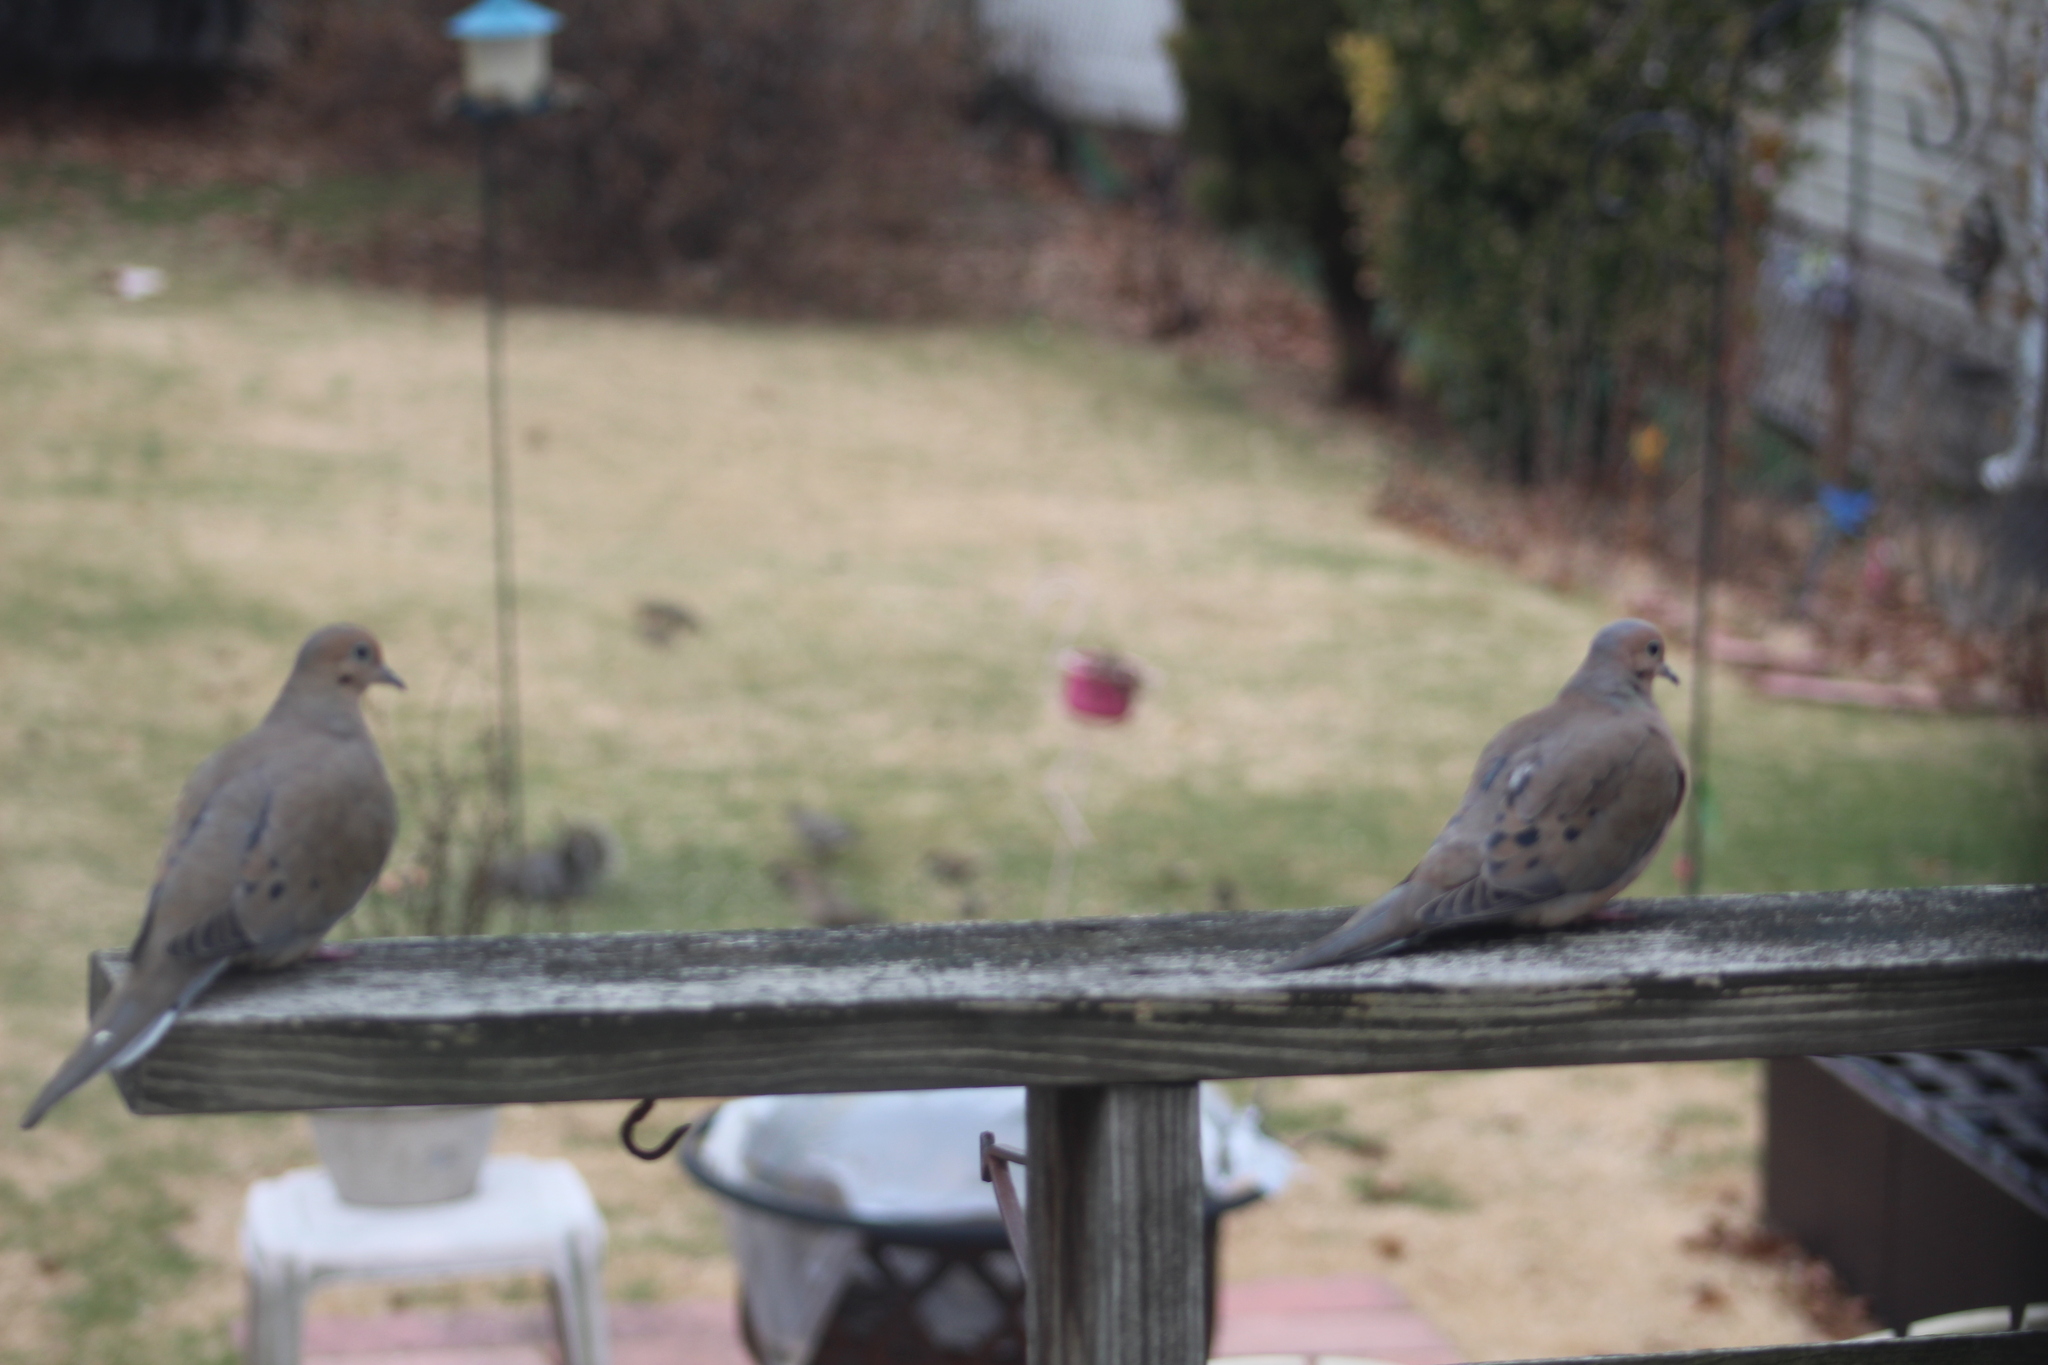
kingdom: Animalia
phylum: Chordata
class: Aves
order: Columbiformes
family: Columbidae
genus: Zenaida
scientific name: Zenaida macroura
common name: Mourning dove
